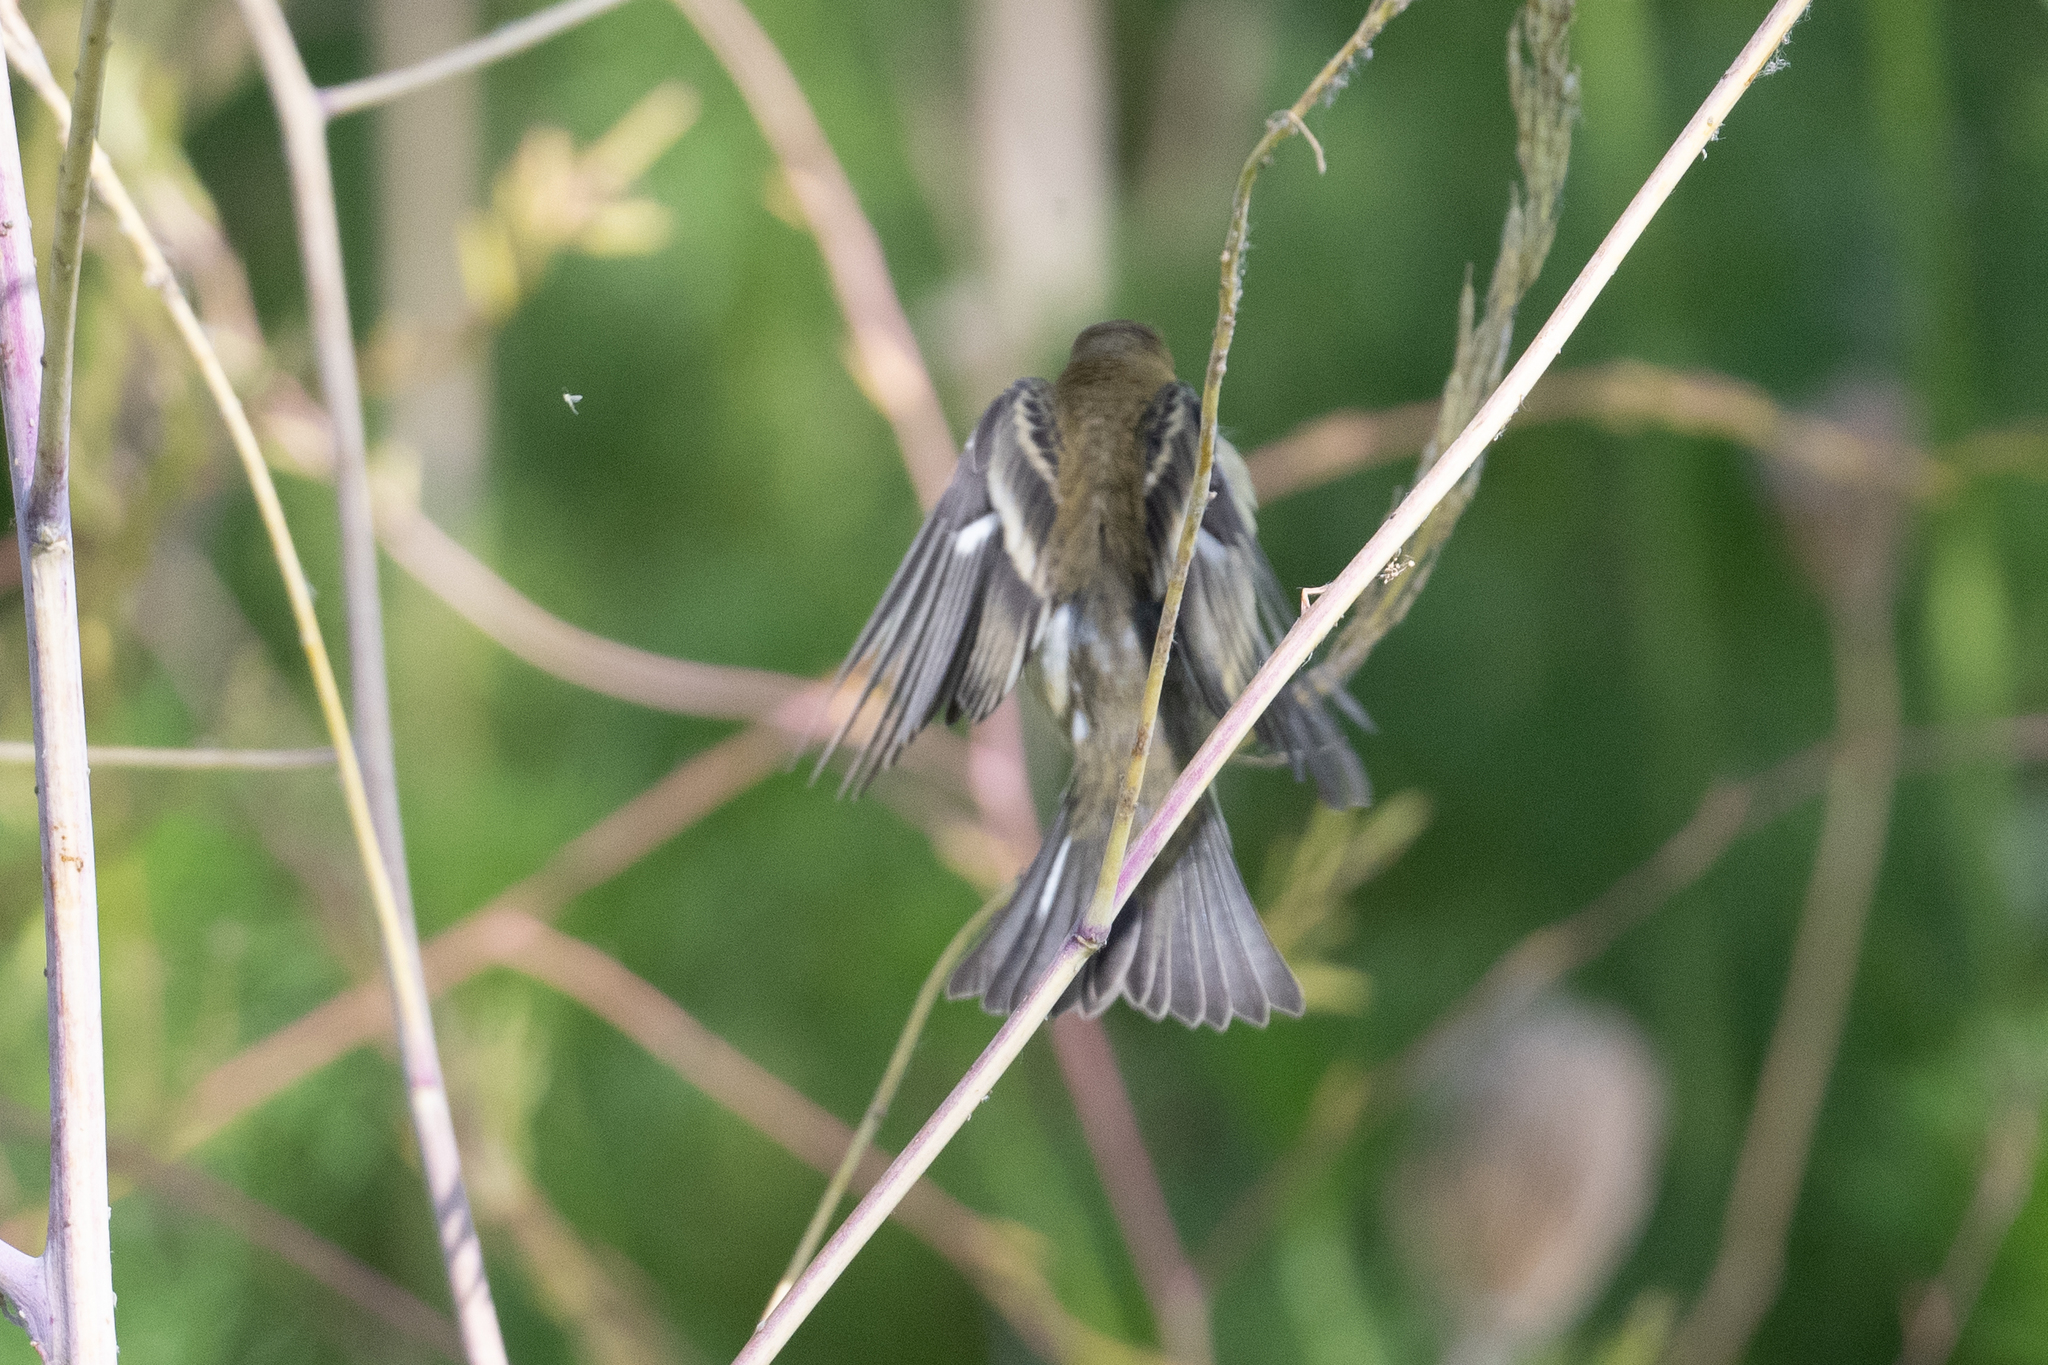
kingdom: Animalia
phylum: Chordata
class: Aves
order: Passeriformes
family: Fringillidae
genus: Spinus
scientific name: Spinus psaltria
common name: Lesser goldfinch
